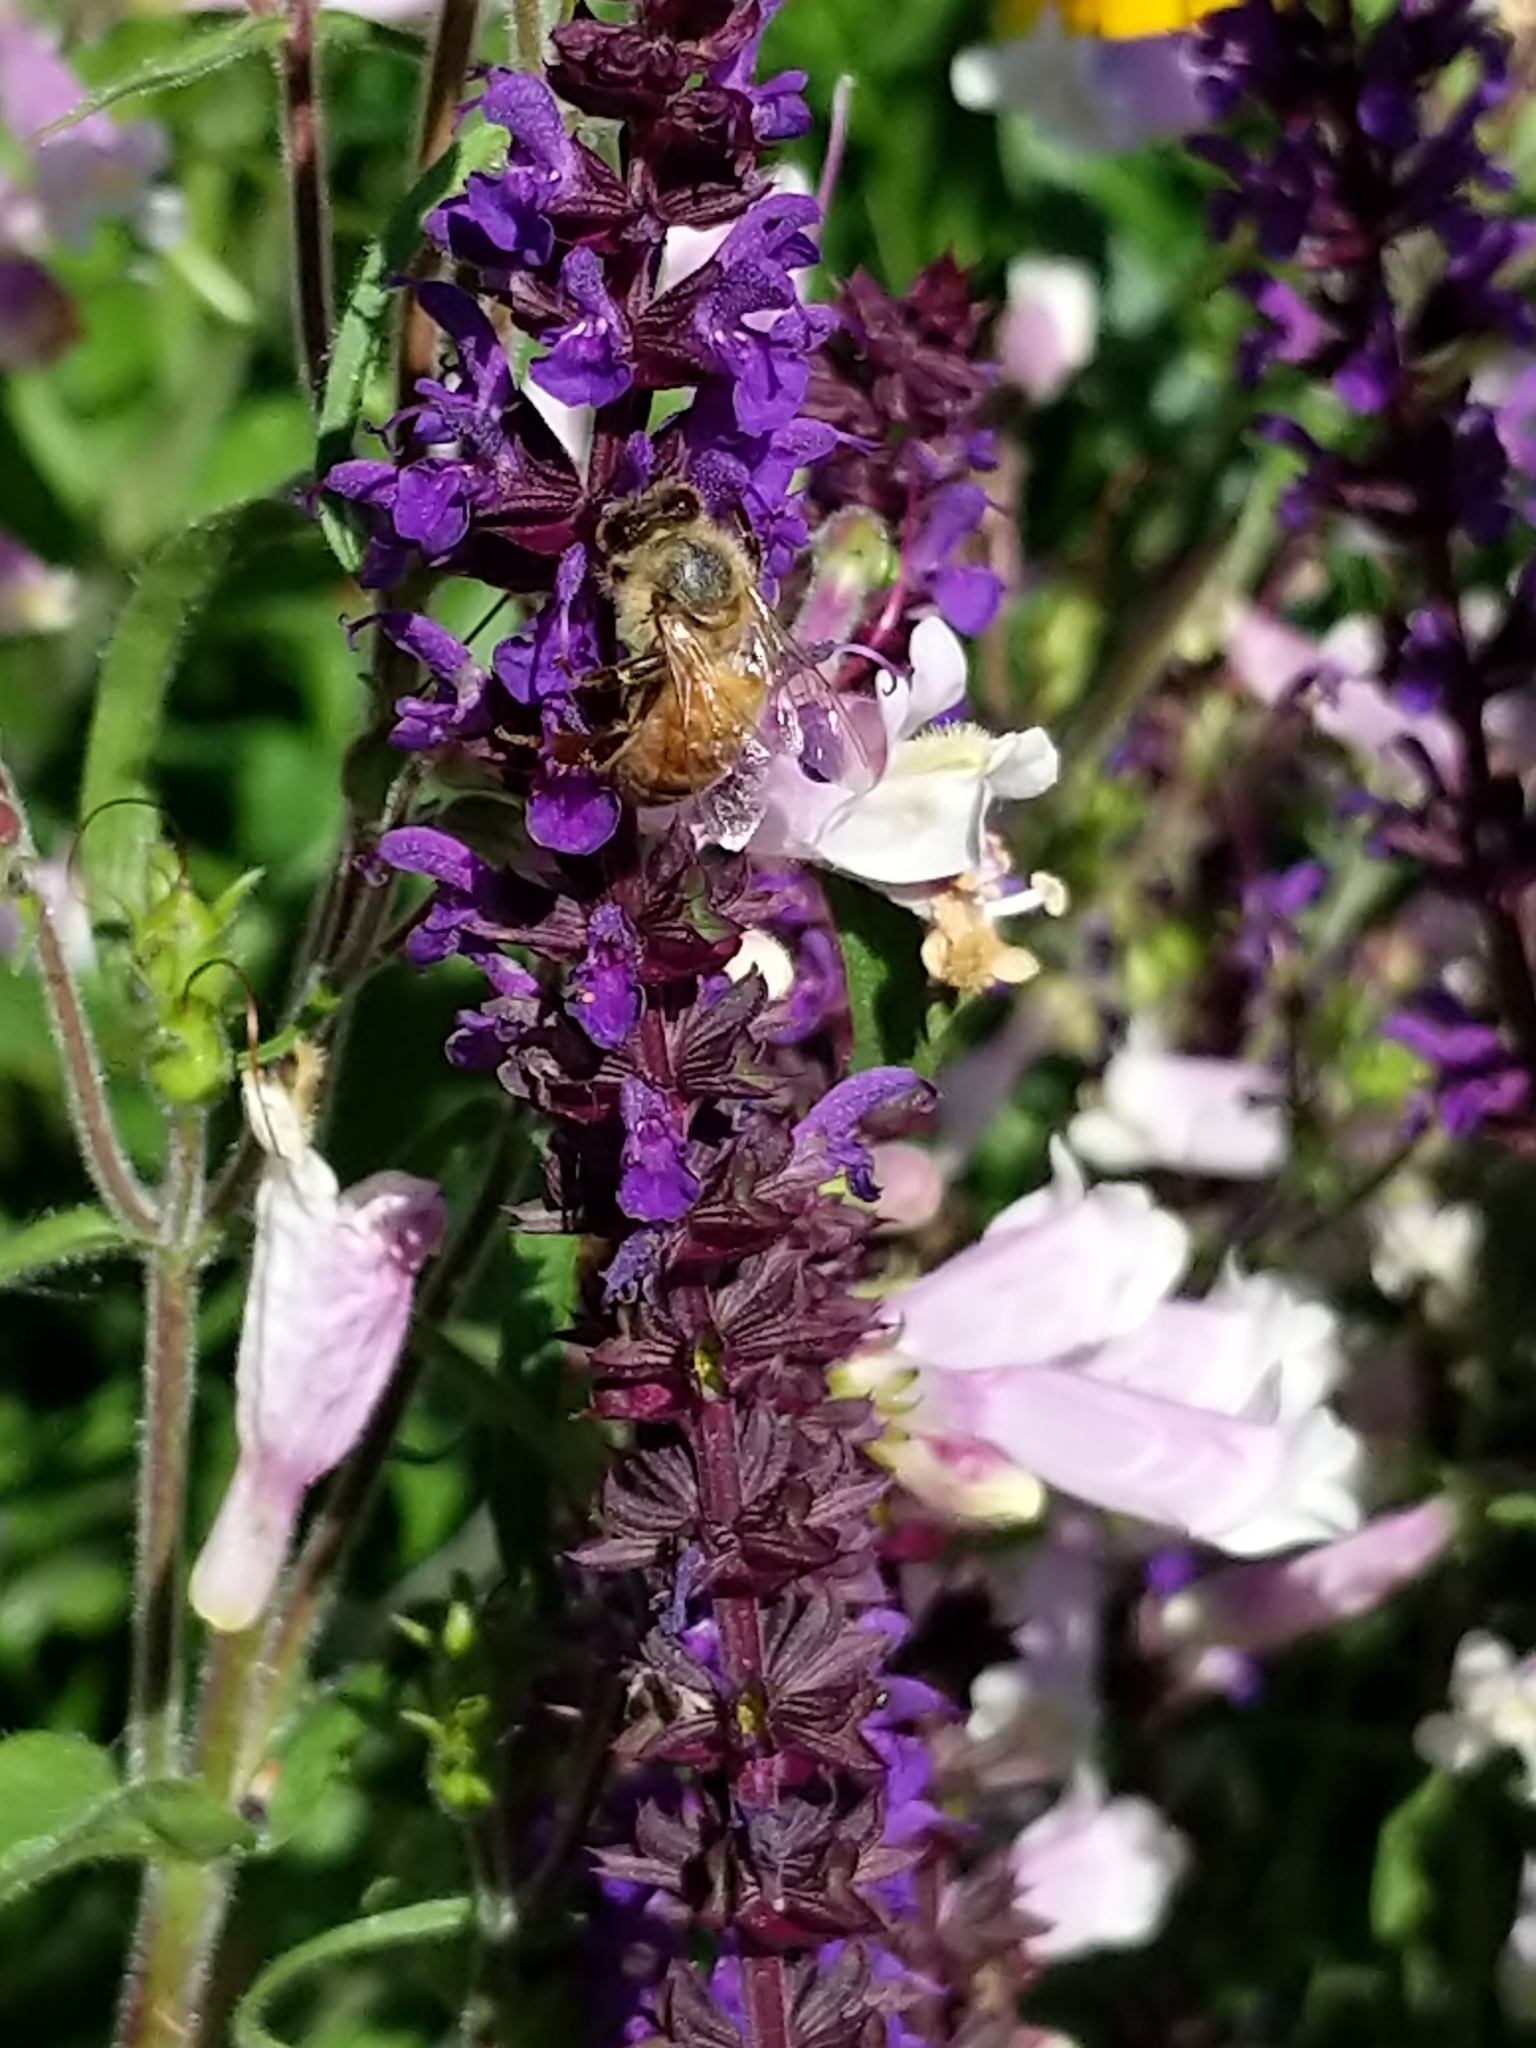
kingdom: Animalia
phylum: Arthropoda
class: Insecta
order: Hymenoptera
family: Apidae
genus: Apis
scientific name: Apis mellifera
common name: Honey bee
